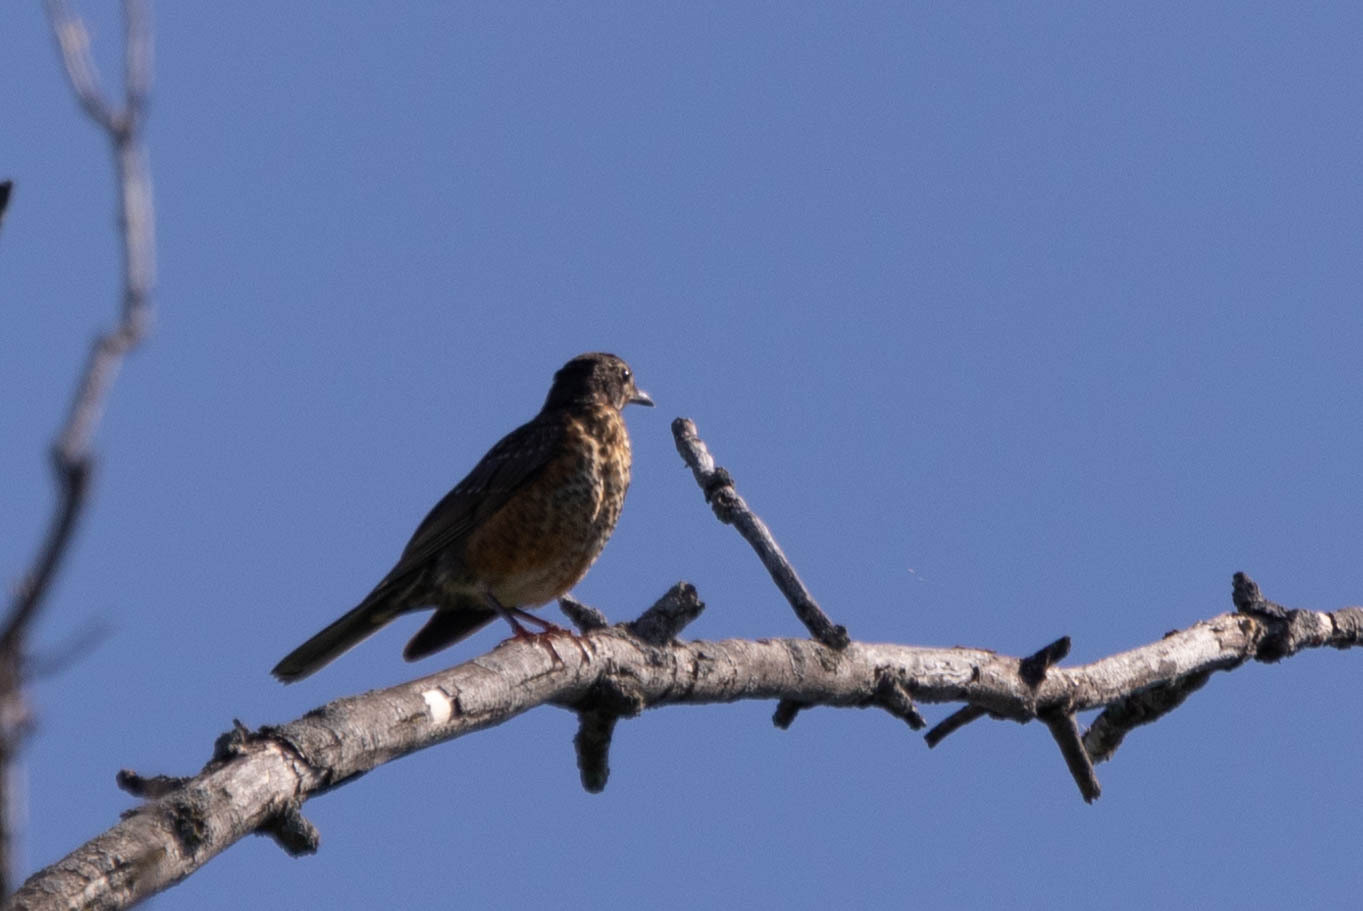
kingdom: Animalia
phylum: Chordata
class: Aves
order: Passeriformes
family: Turdidae
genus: Turdus
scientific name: Turdus migratorius
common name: American robin
